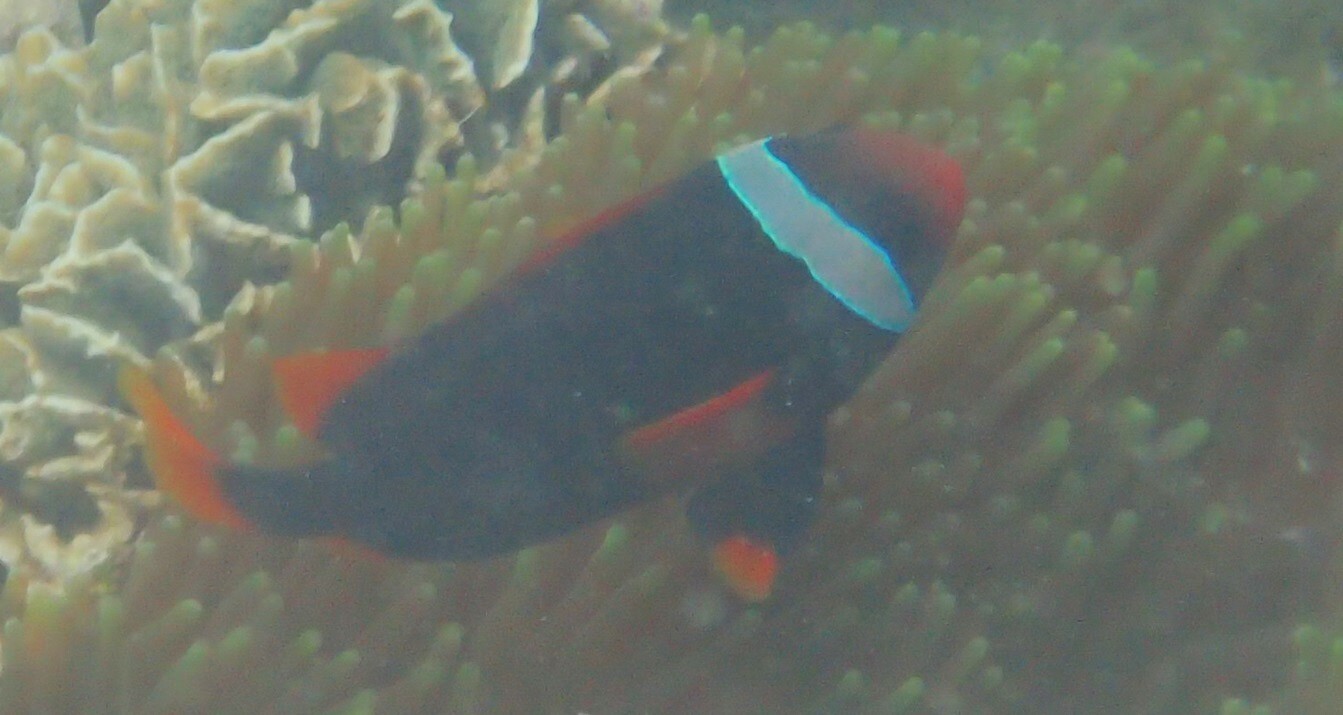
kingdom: Animalia
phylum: Chordata
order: Perciformes
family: Pomacentridae
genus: Amphiprion
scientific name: Amphiprion frenatus
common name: Tomato anemonefish
